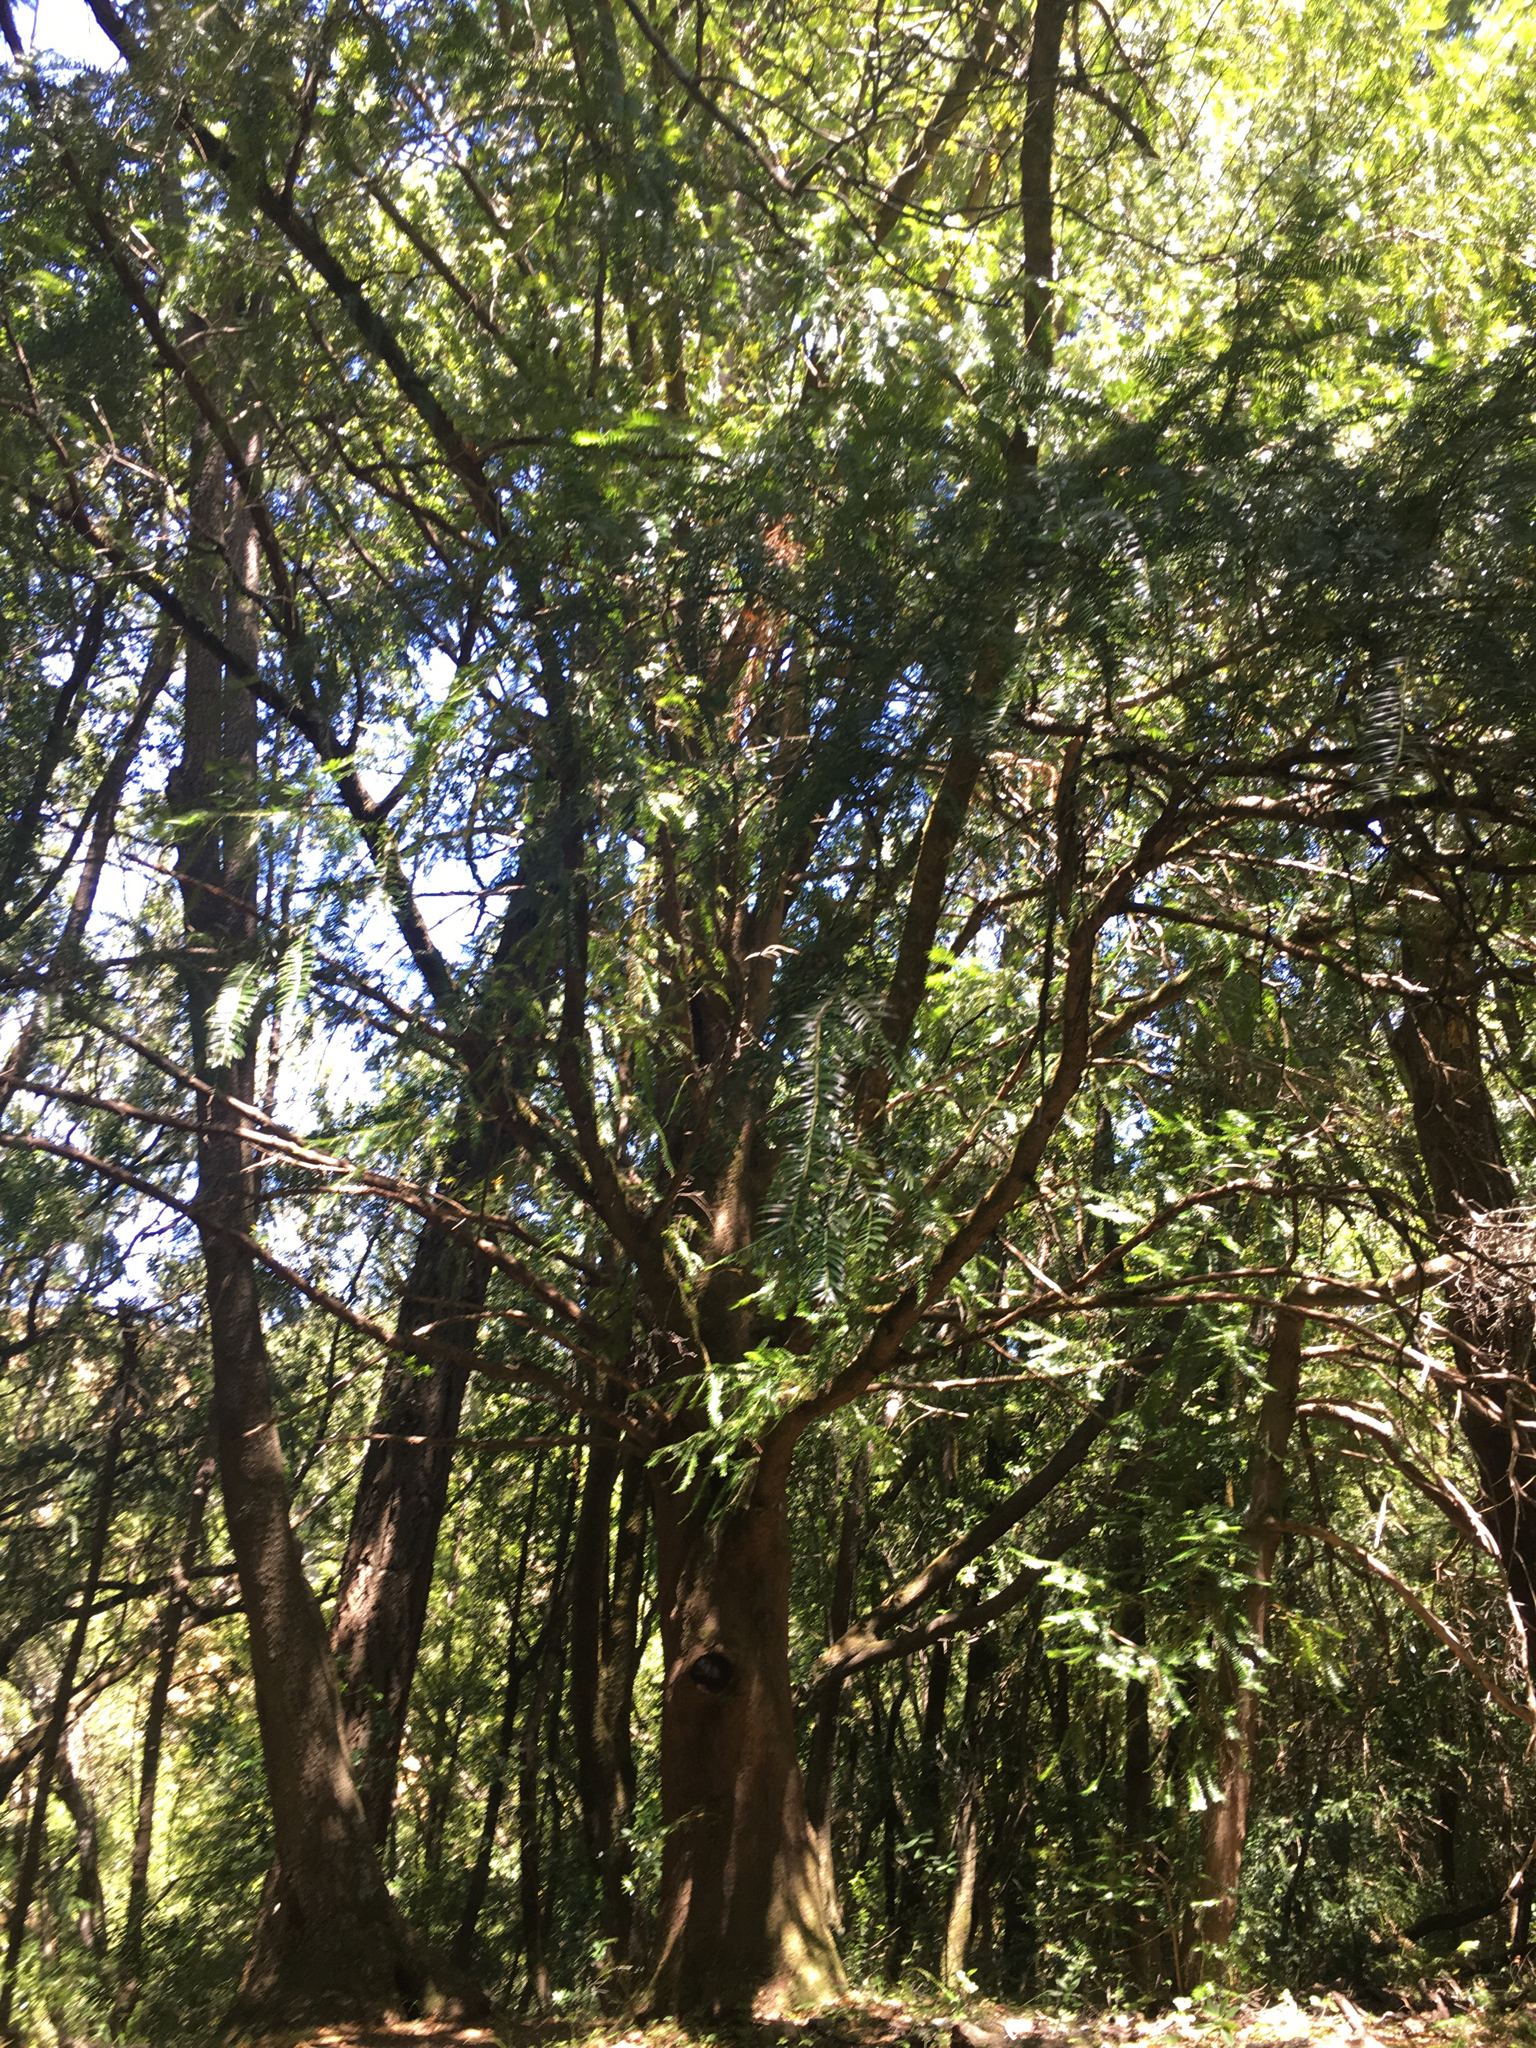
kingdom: Plantae
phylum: Tracheophyta
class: Pinopsida
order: Pinales
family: Taxaceae
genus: Torreya
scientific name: Torreya californica
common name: California torreya
